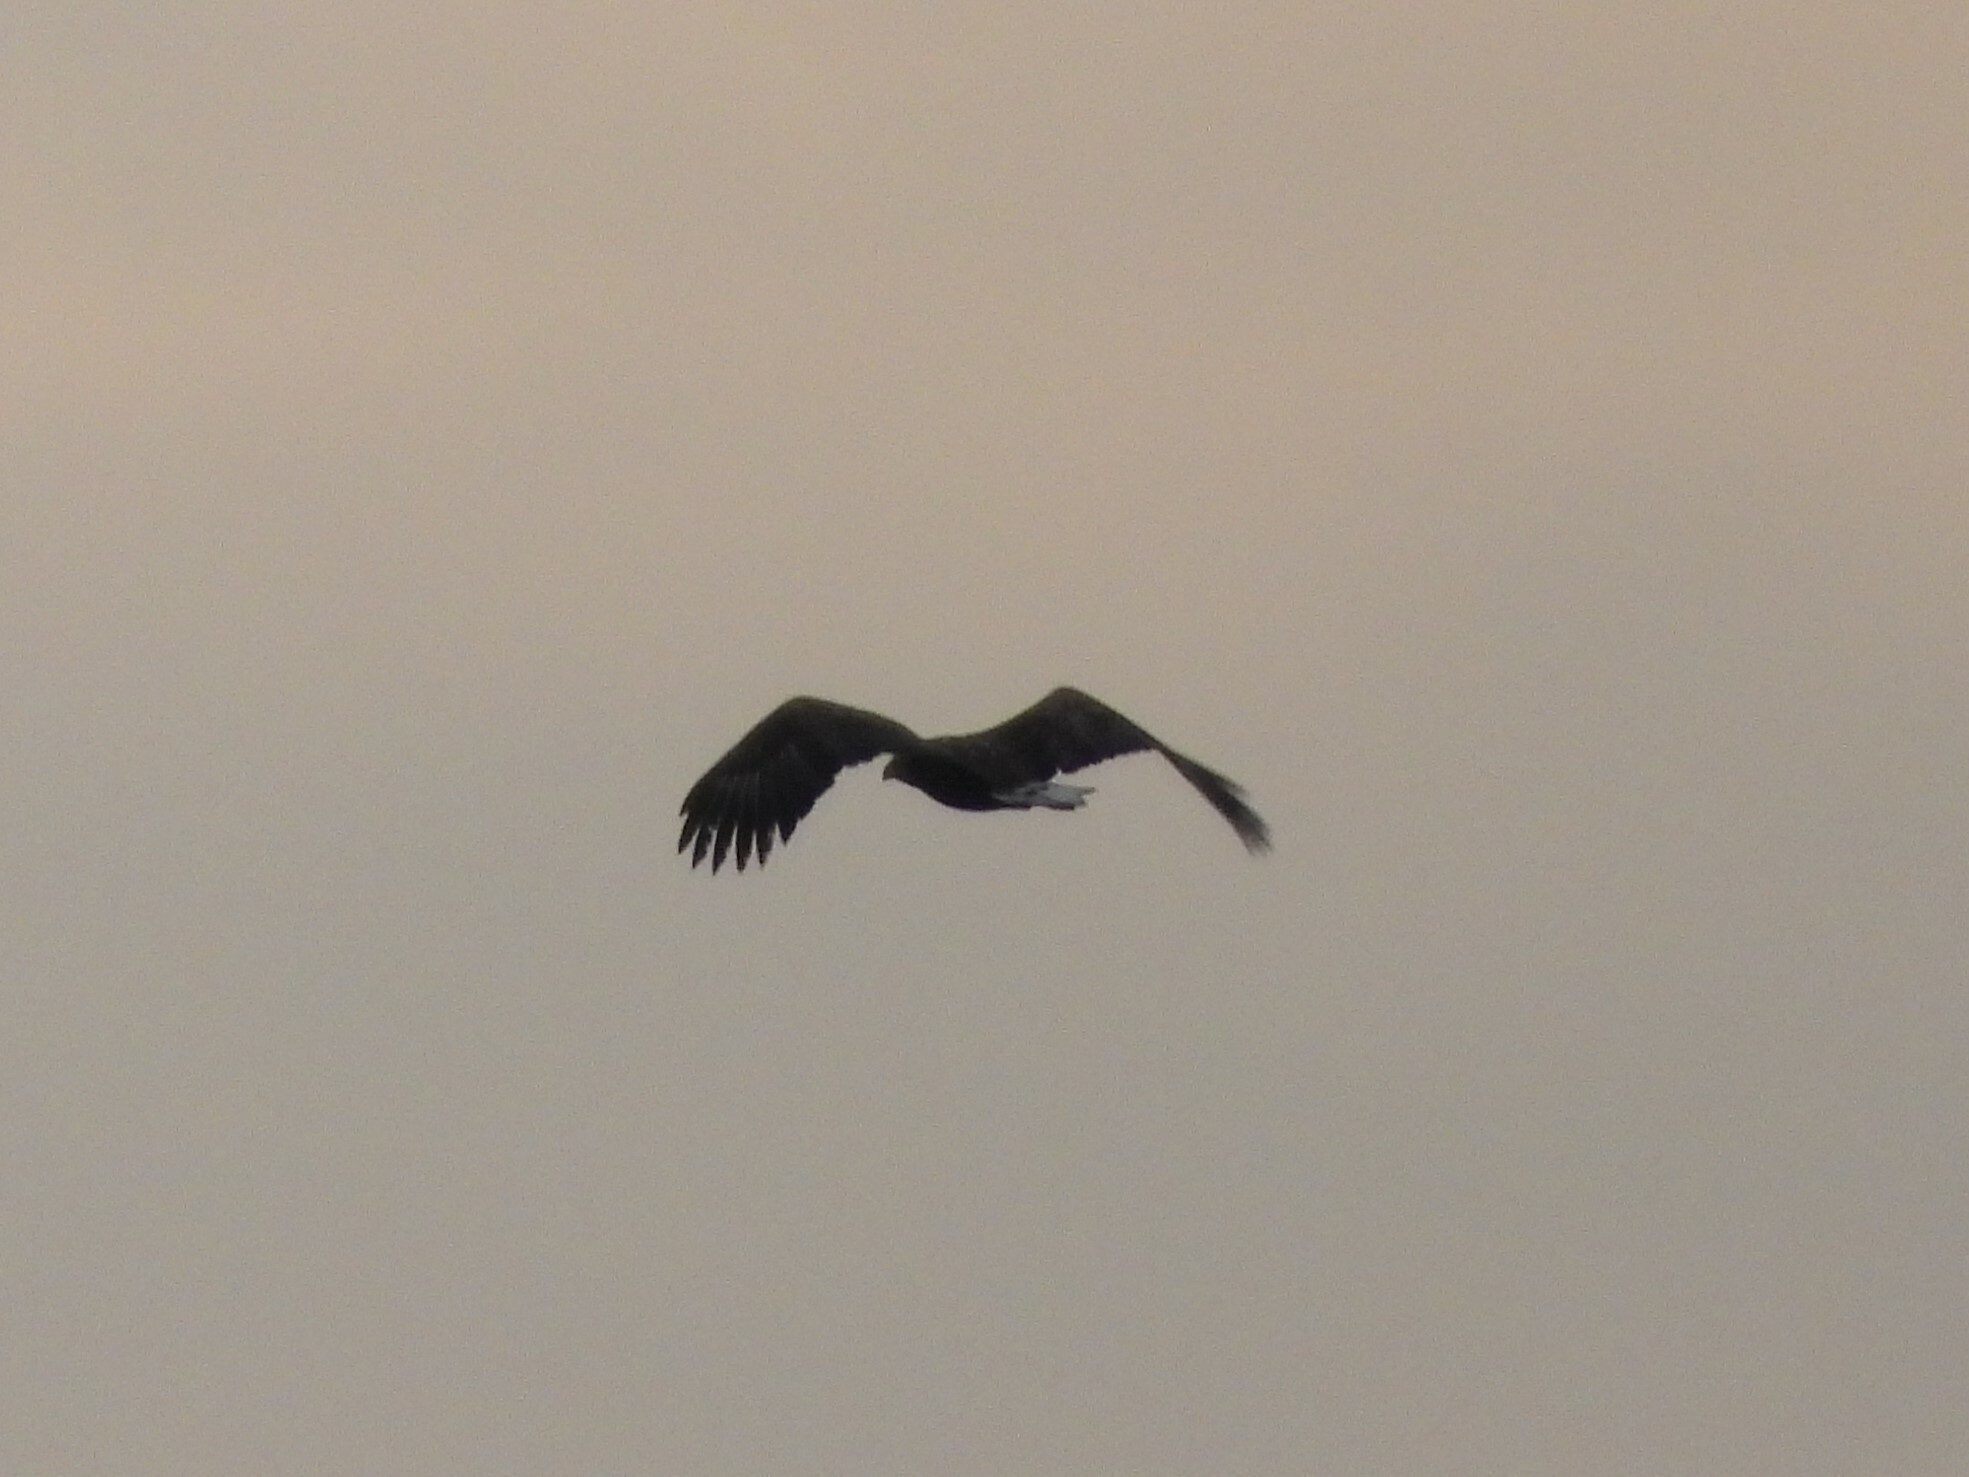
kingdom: Animalia
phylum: Chordata
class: Aves
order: Accipitriformes
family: Accipitridae
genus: Haliaeetus
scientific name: Haliaeetus albicilla
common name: White-tailed eagle
